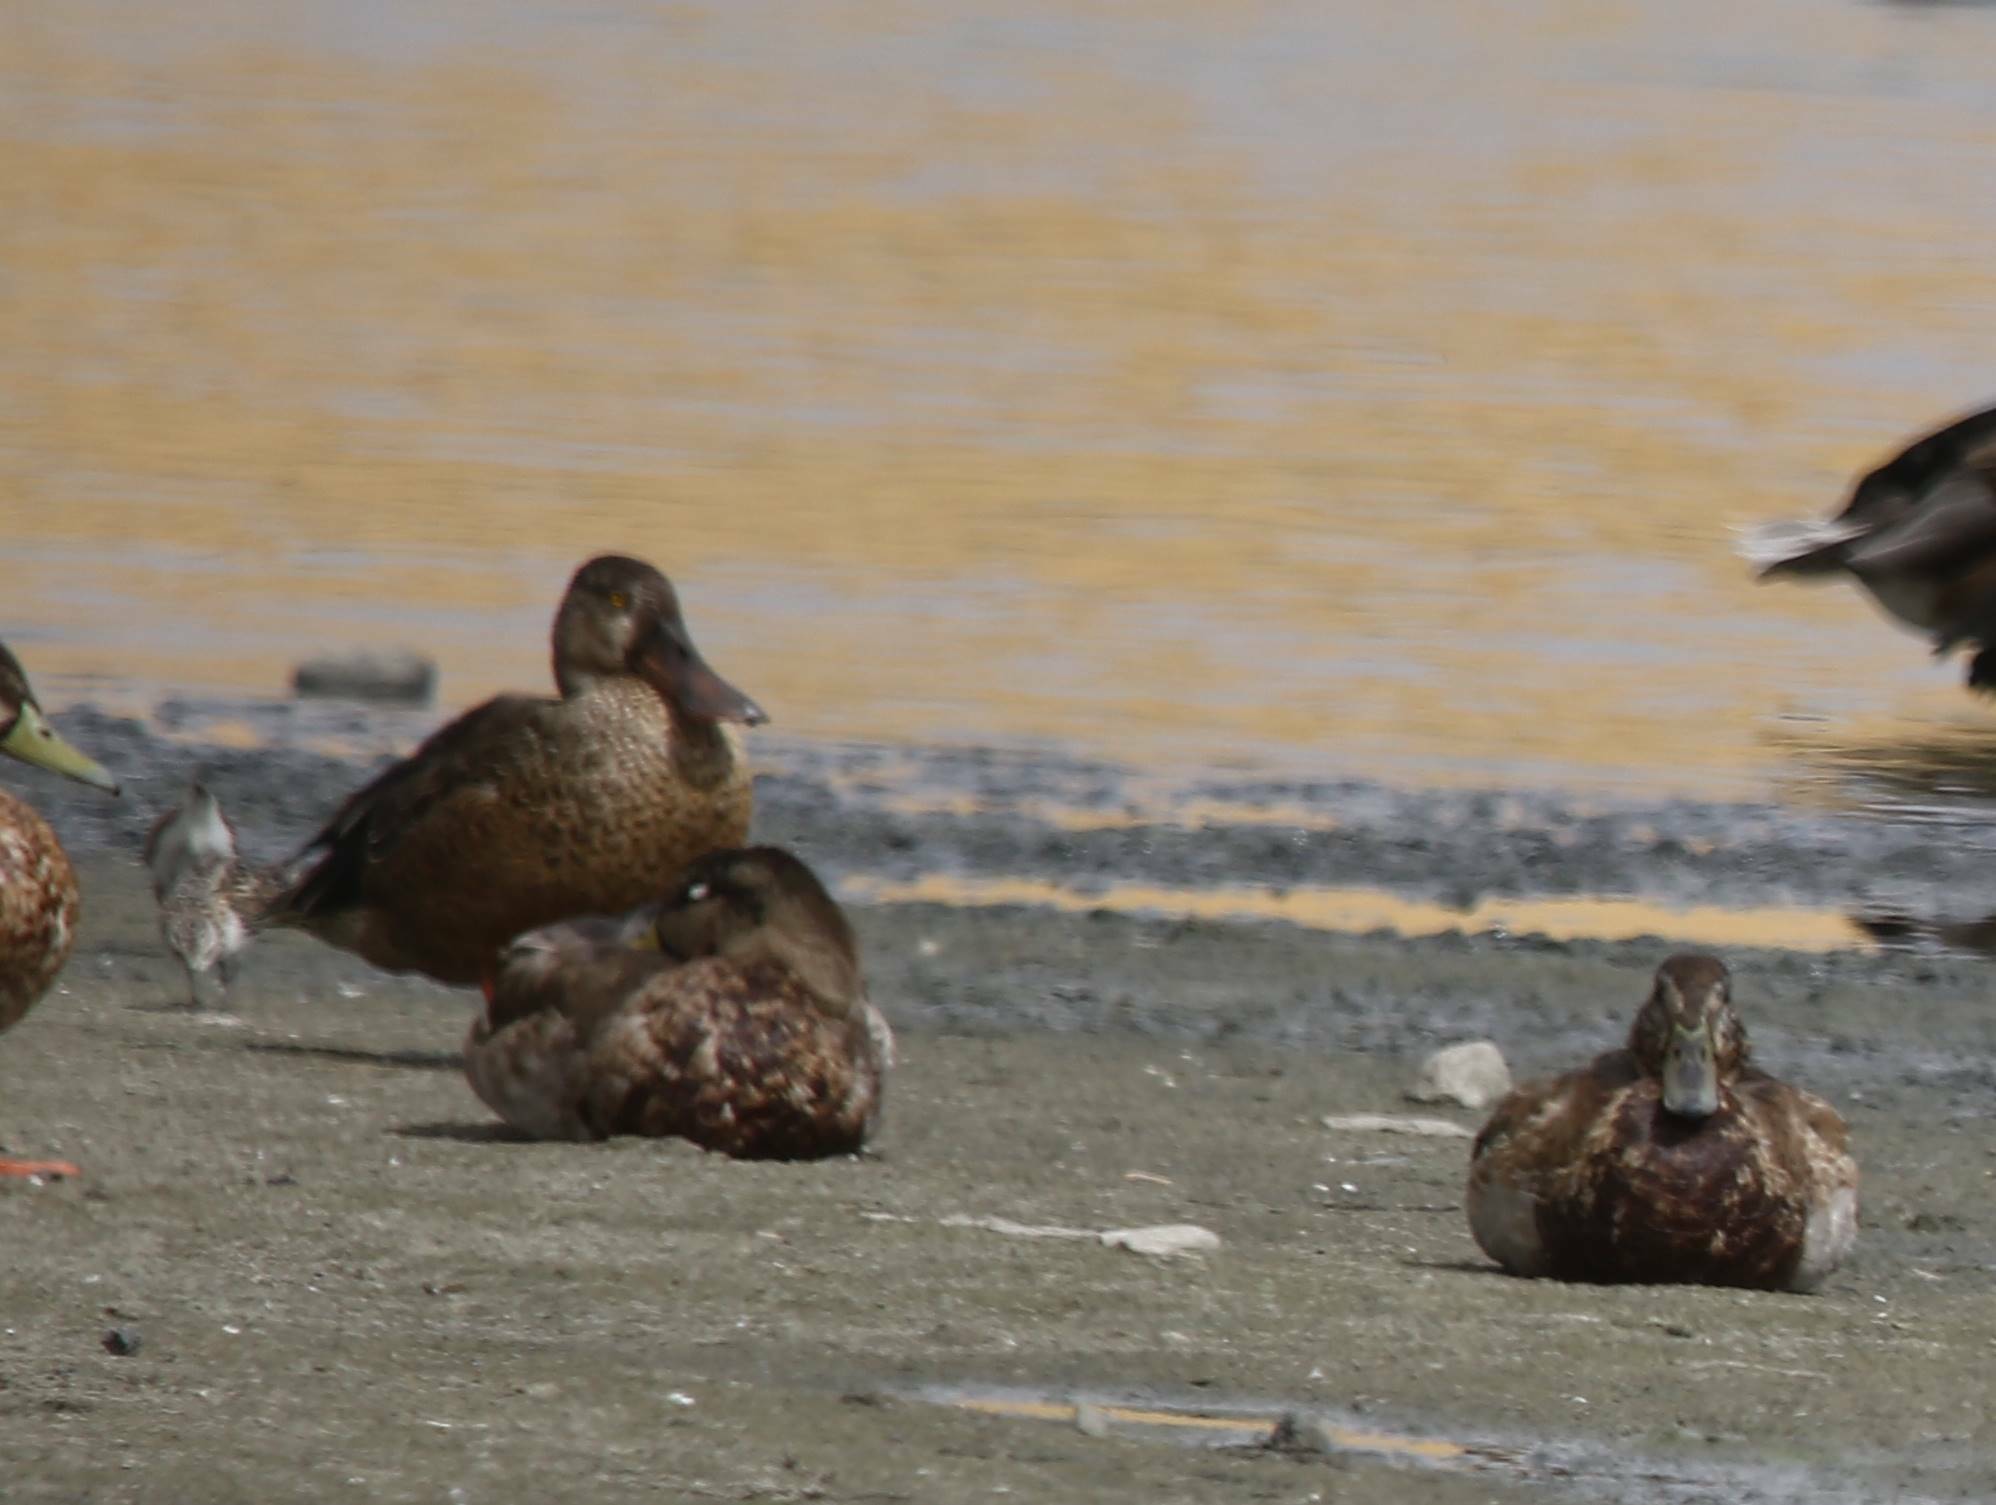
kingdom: Animalia
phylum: Chordata
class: Aves
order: Anseriformes
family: Anatidae
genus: Spatula
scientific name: Spatula clypeata
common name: Northern shoveler
